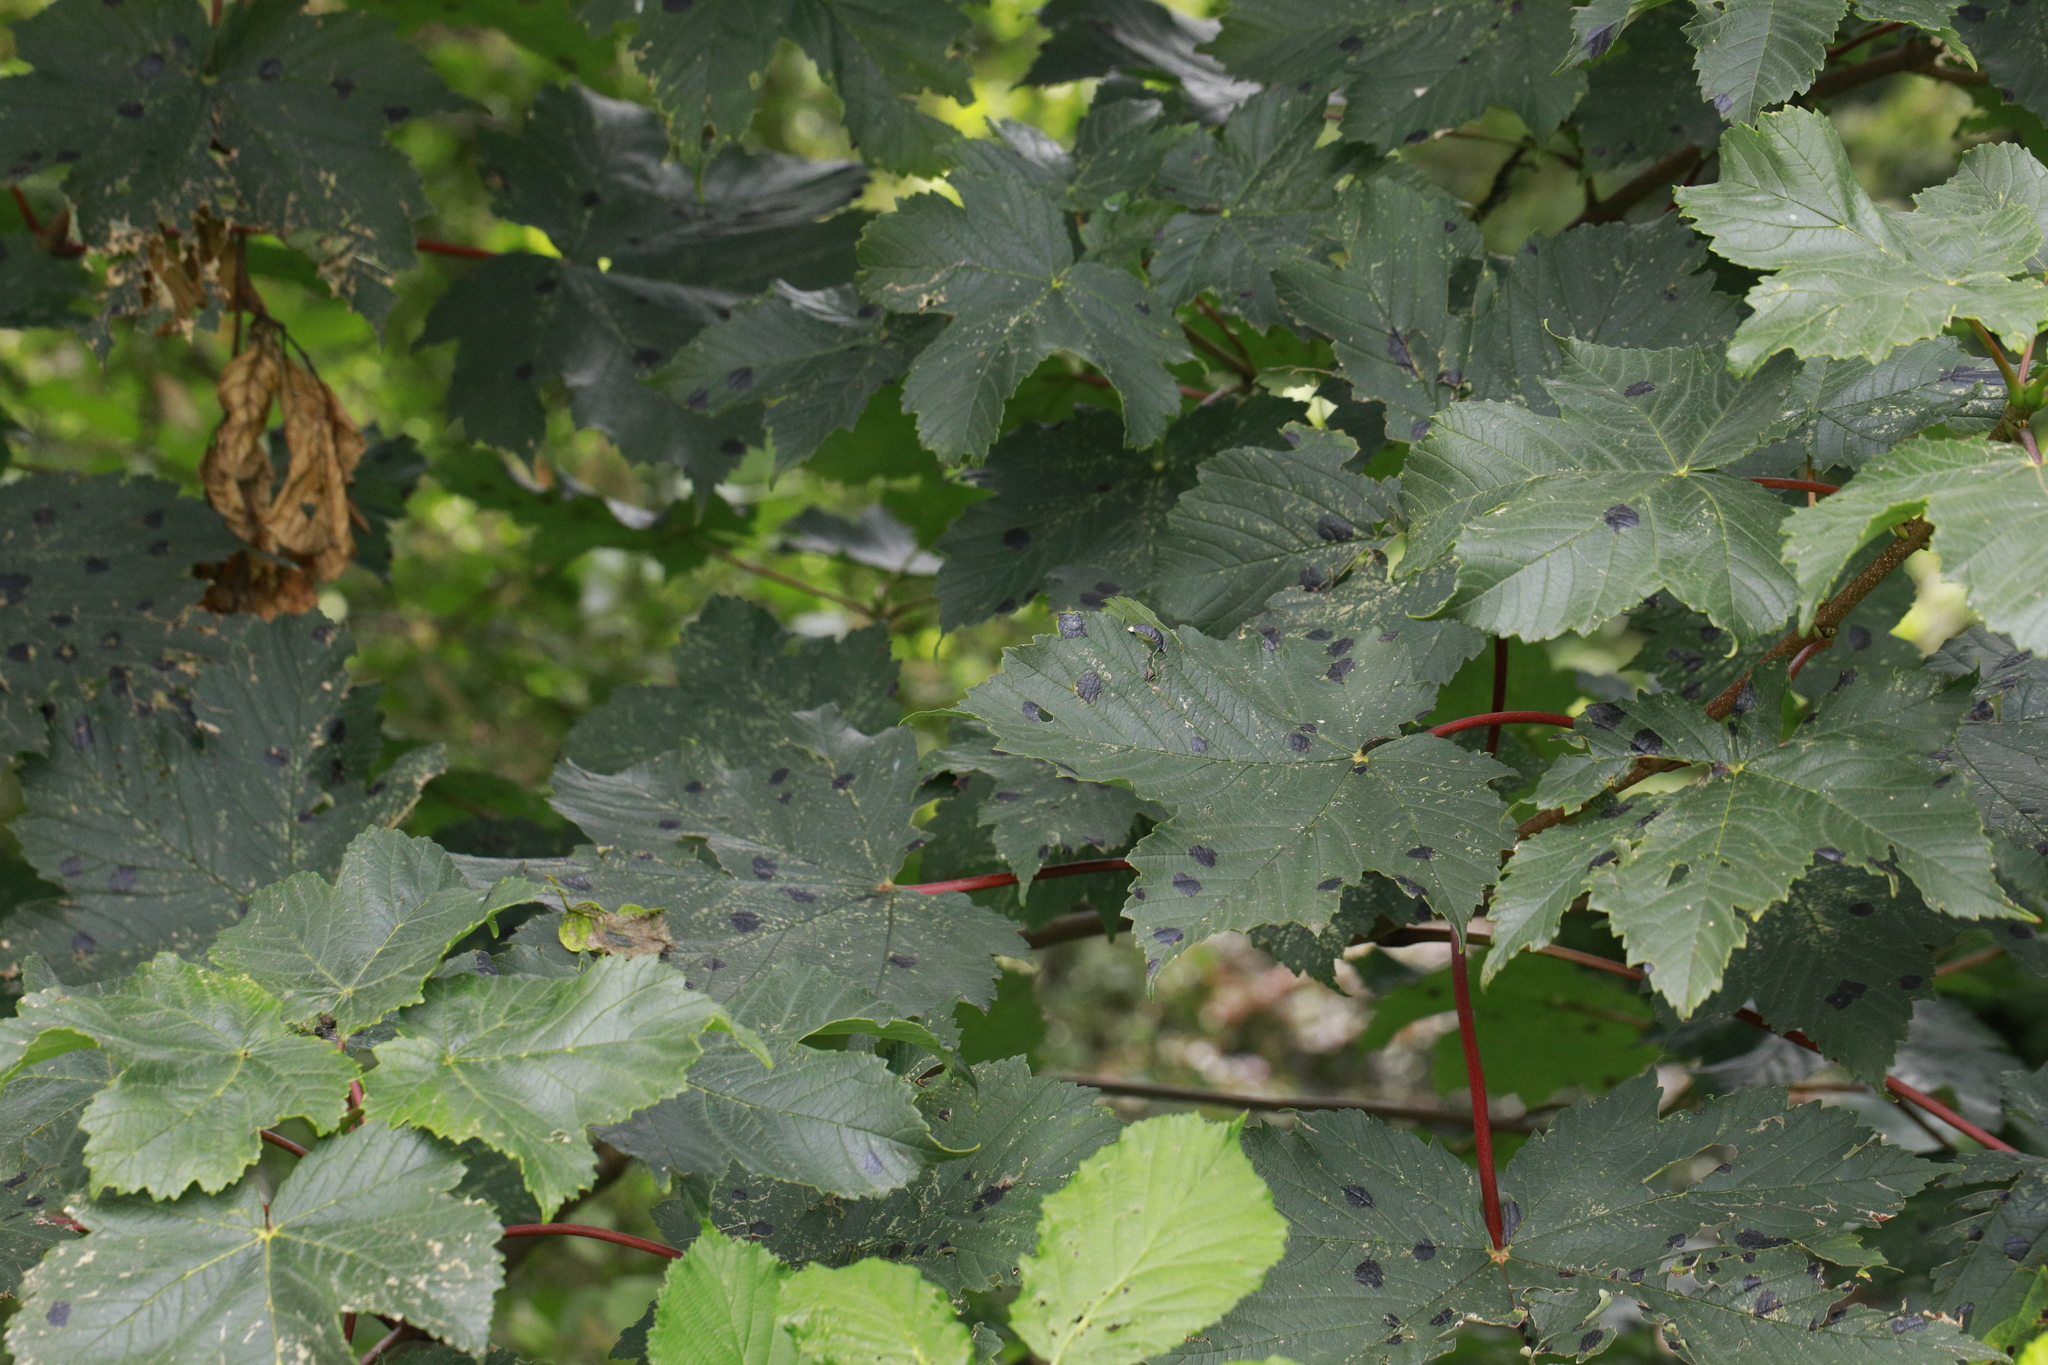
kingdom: Plantae
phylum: Tracheophyta
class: Magnoliopsida
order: Sapindales
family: Sapindaceae
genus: Acer
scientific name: Acer pseudoplatanus
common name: Sycamore
